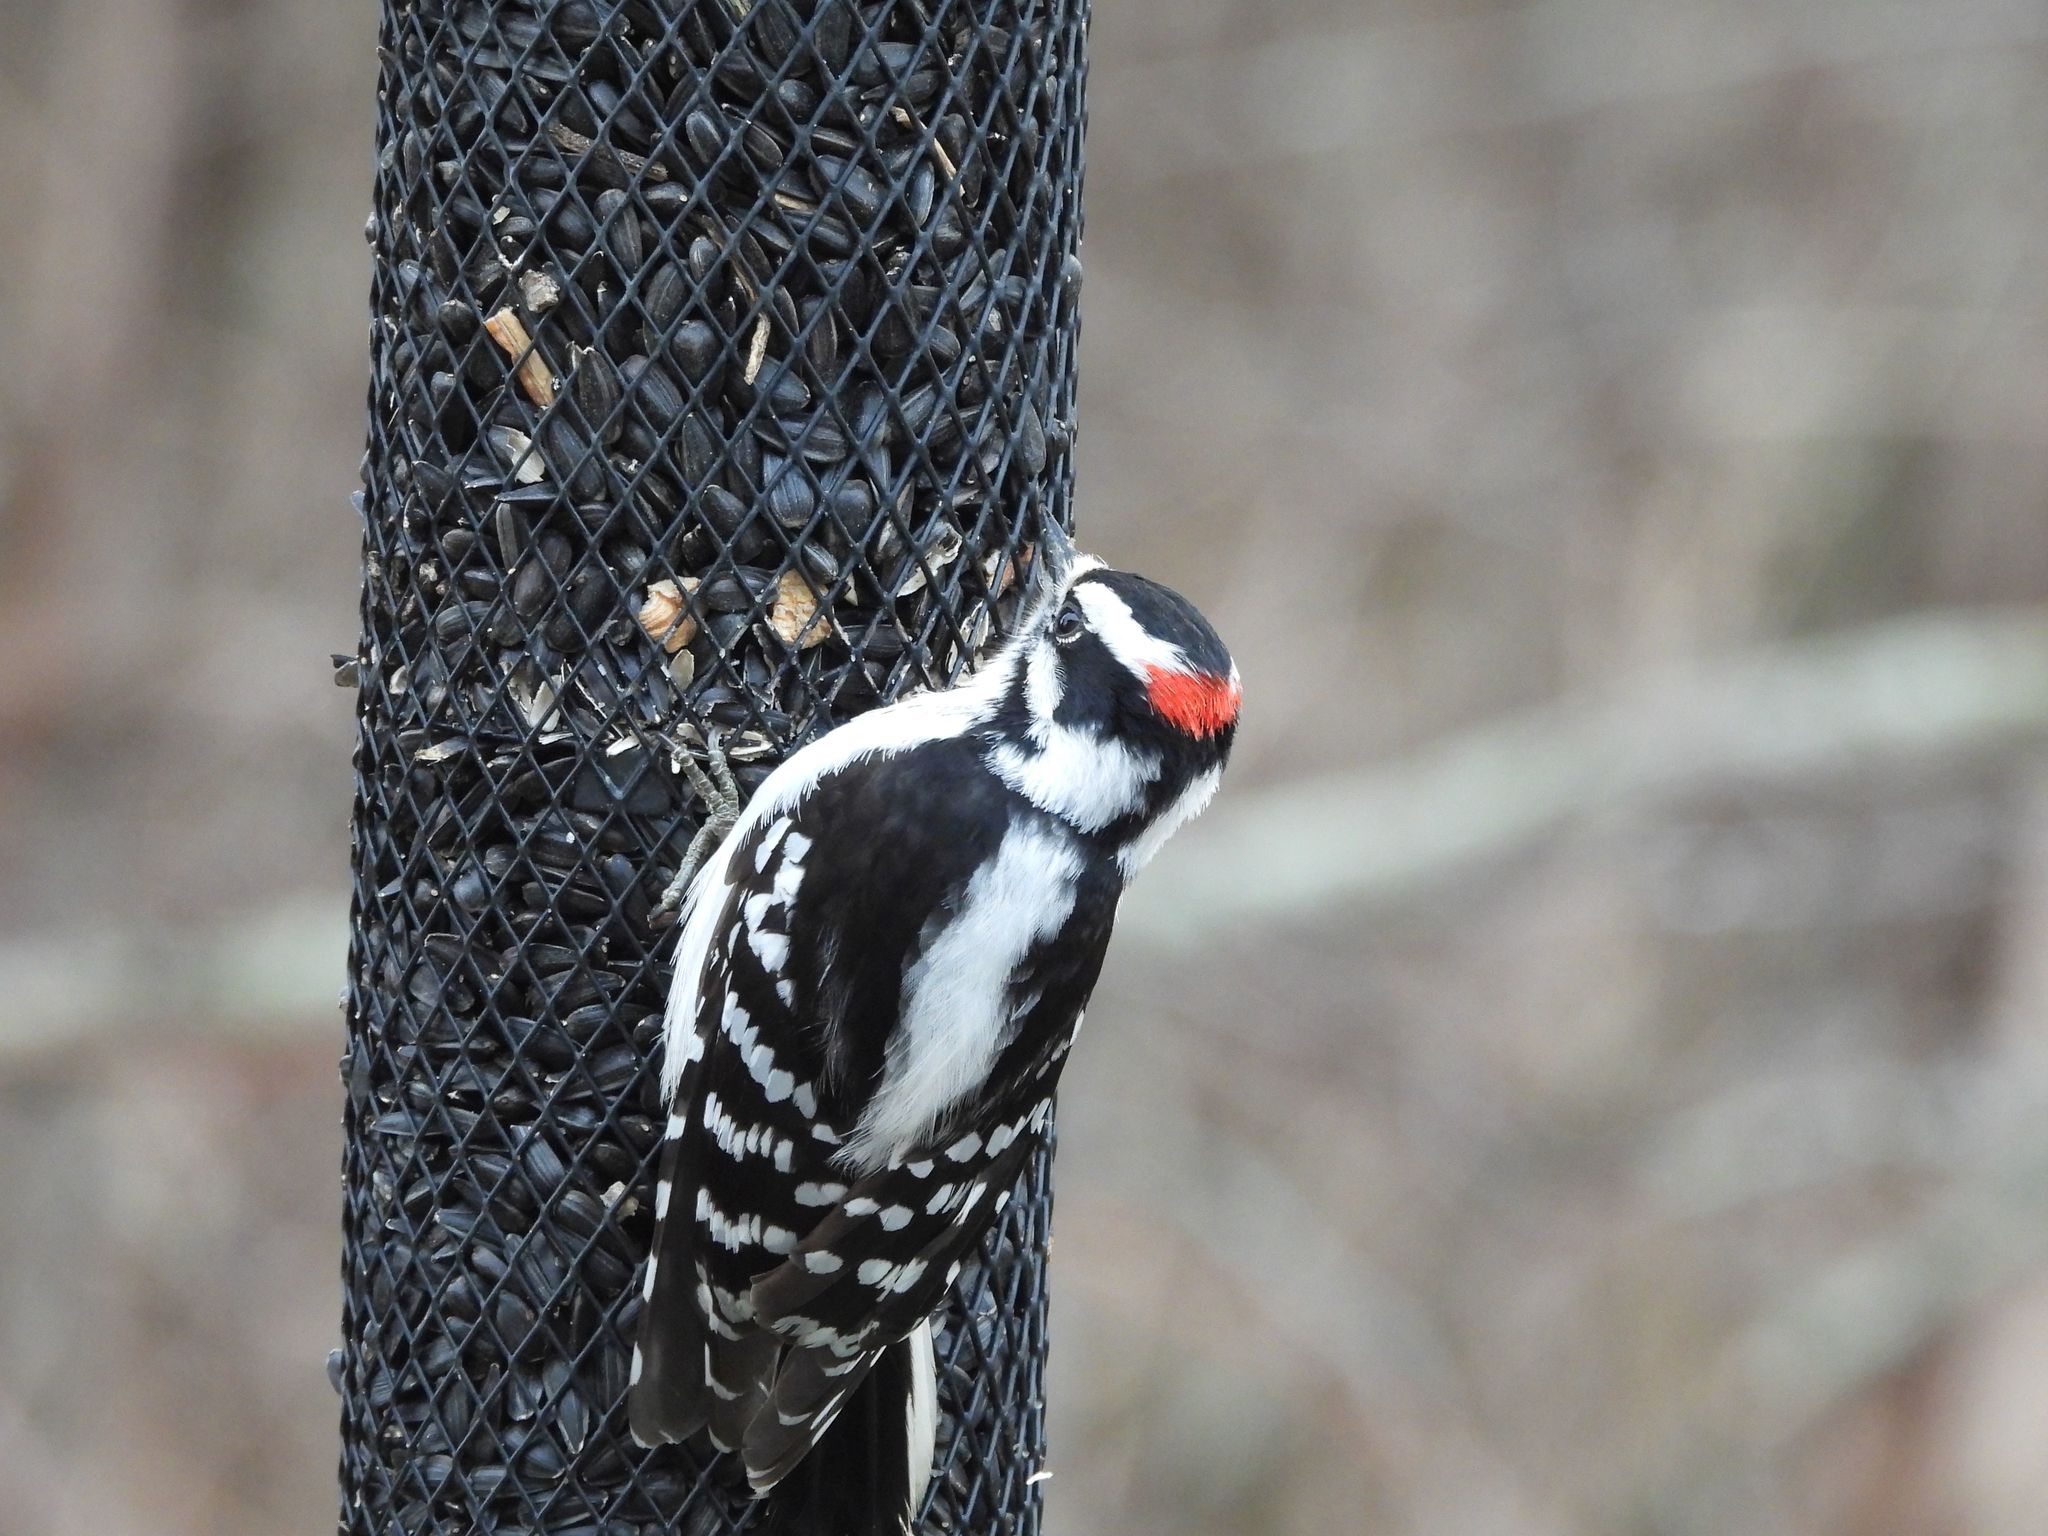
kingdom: Animalia
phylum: Chordata
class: Aves
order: Piciformes
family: Picidae
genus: Dryobates
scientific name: Dryobates pubescens
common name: Downy woodpecker
